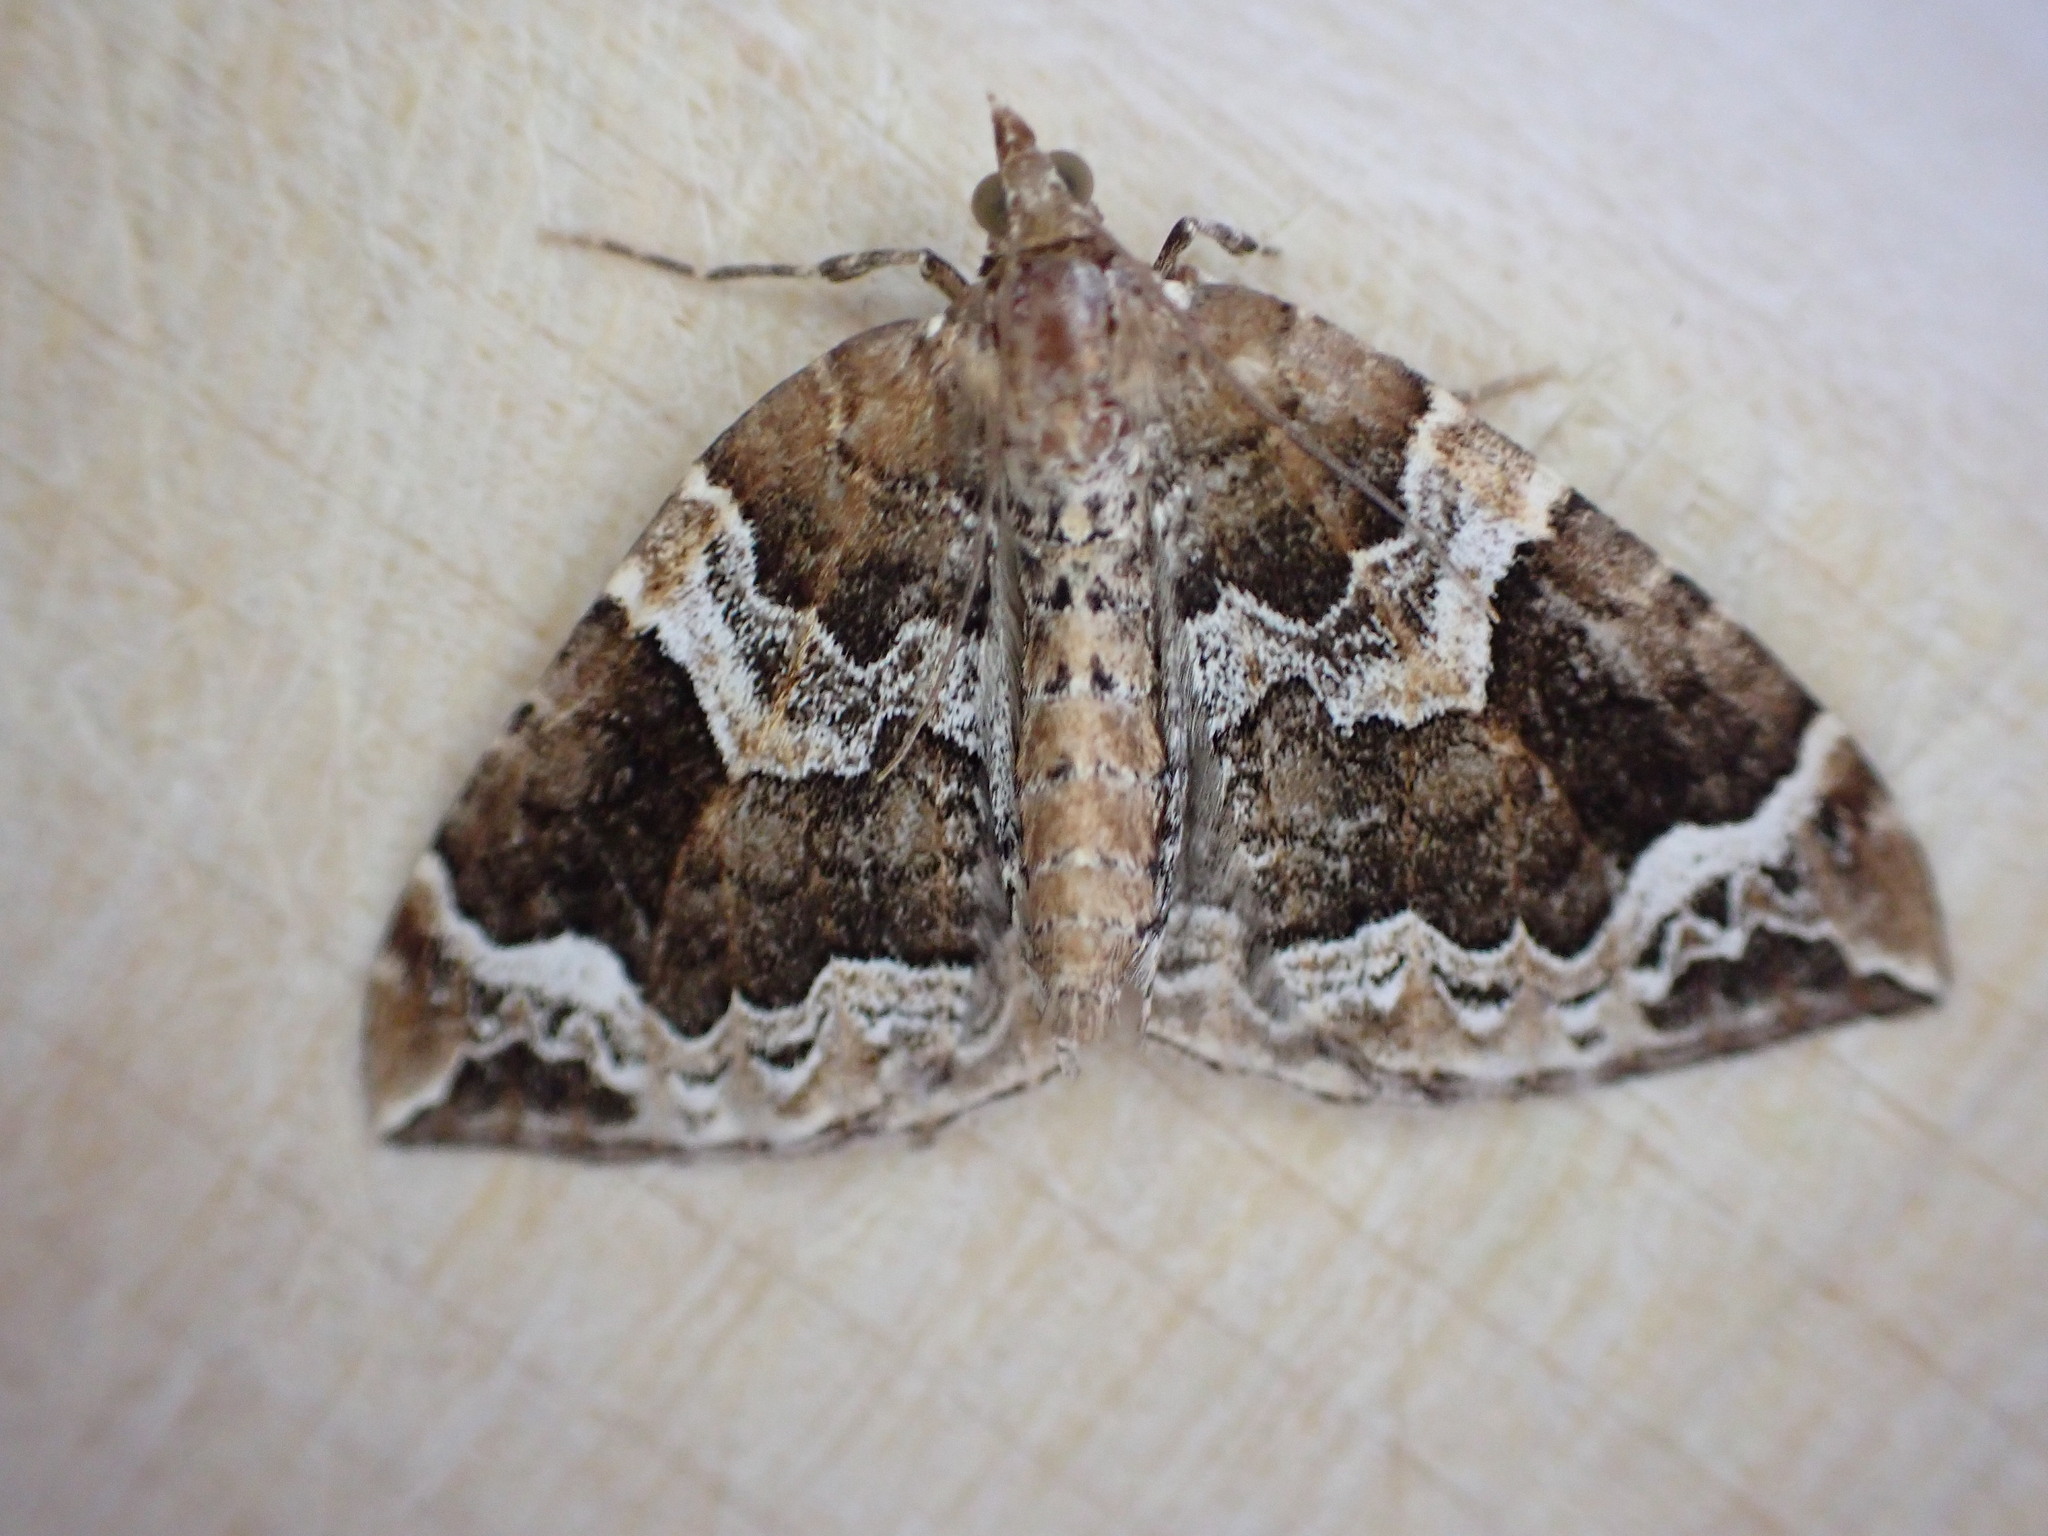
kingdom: Animalia
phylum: Arthropoda
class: Insecta
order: Lepidoptera
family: Geometridae
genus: Eulithis
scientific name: Eulithis prunata
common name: Phoenix
